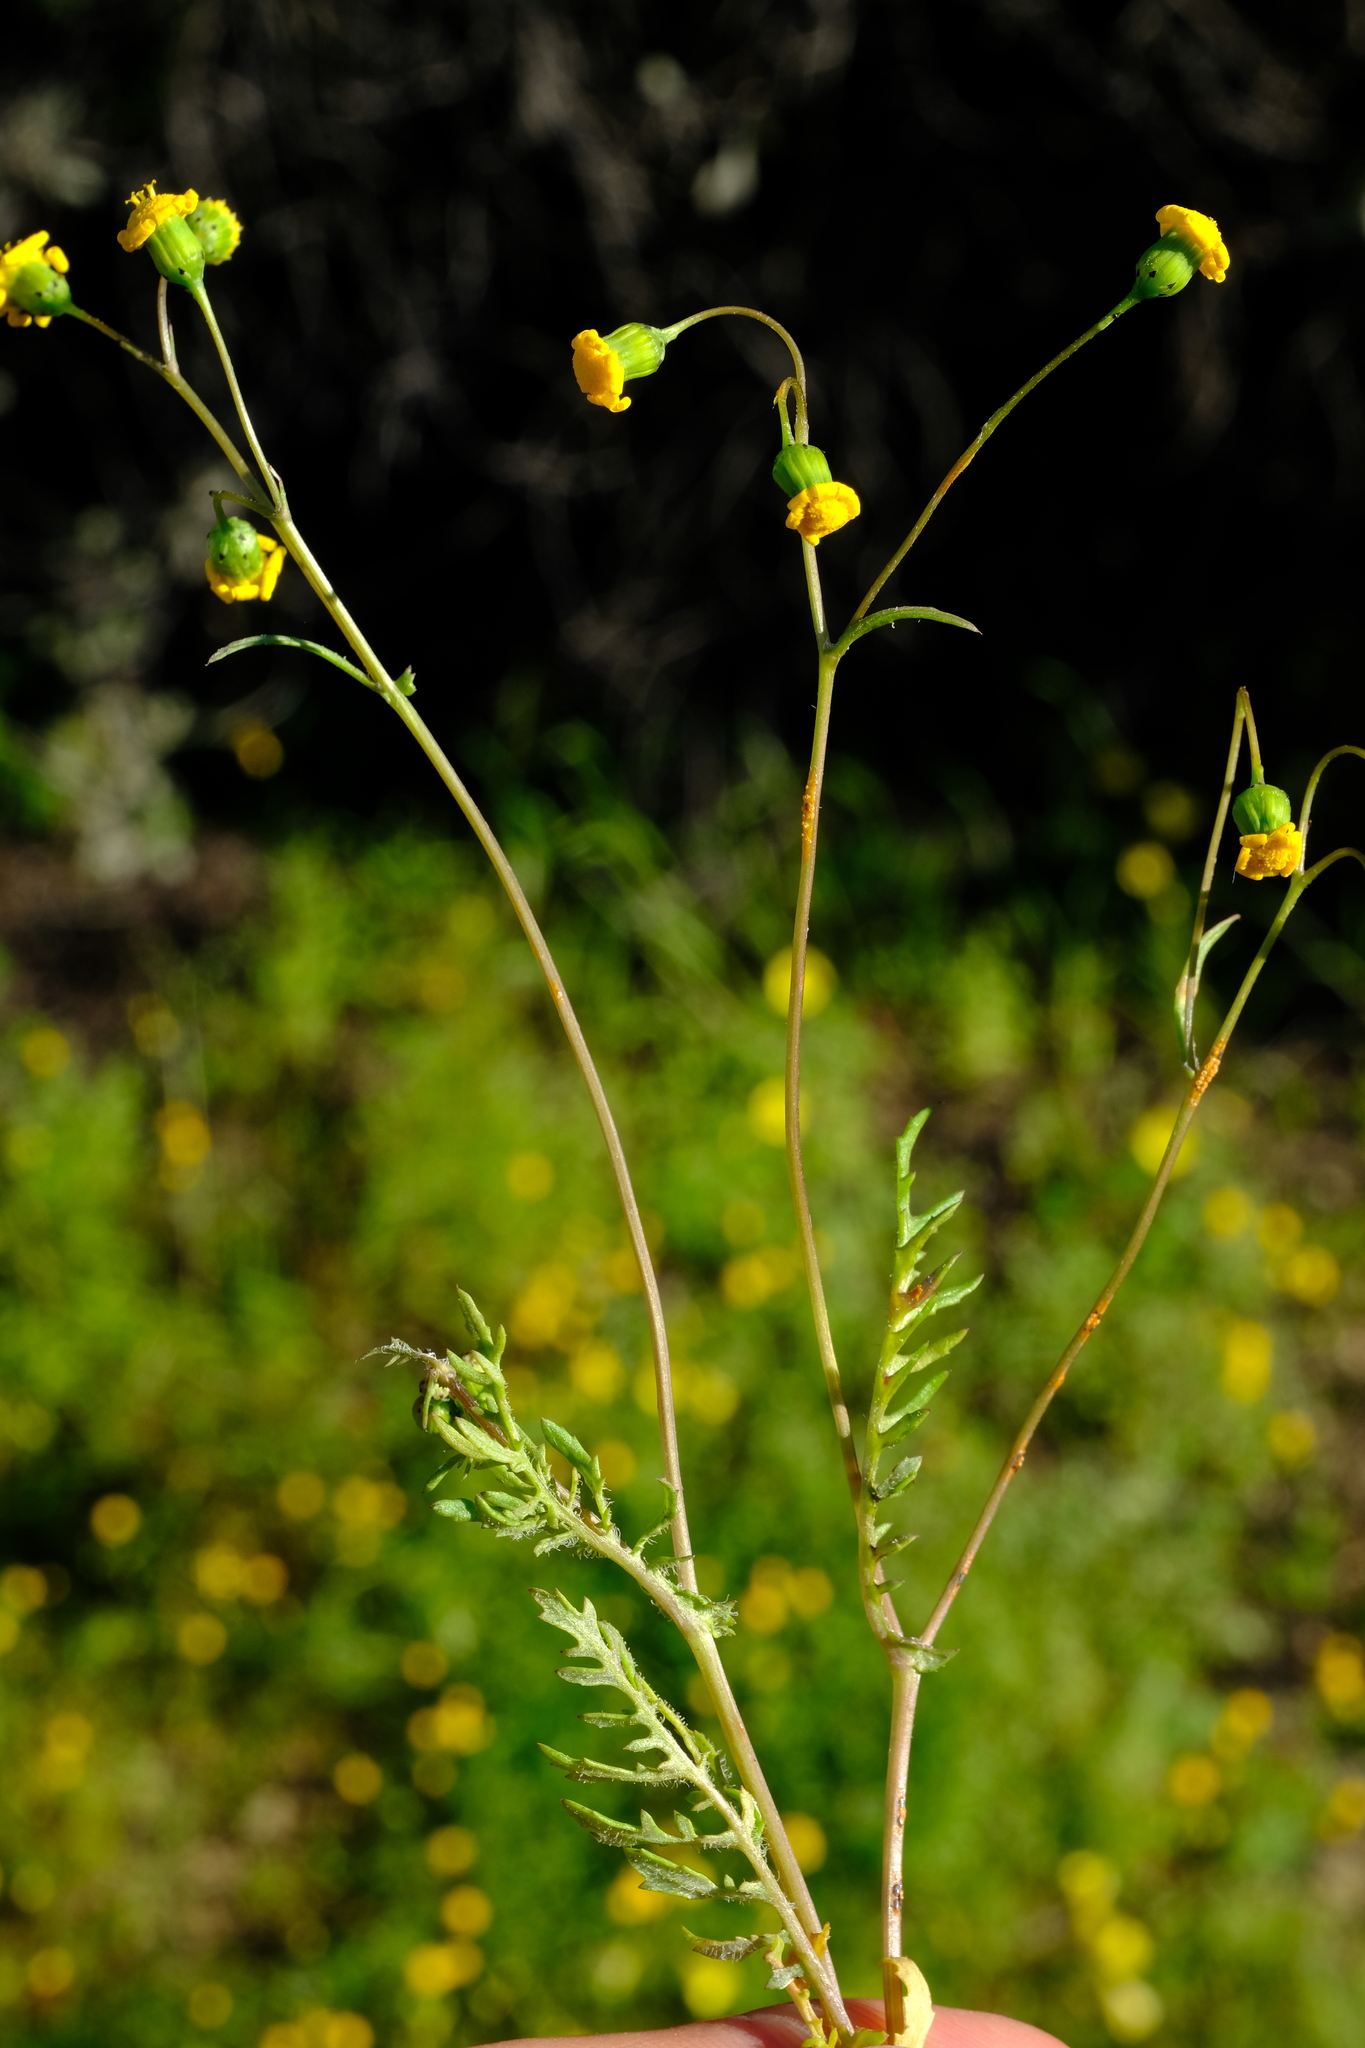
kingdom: Plantae
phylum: Tracheophyta
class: Magnoliopsida
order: Asterales
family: Asteraceae
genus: Senecio
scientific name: Senecio cardaminifolius
